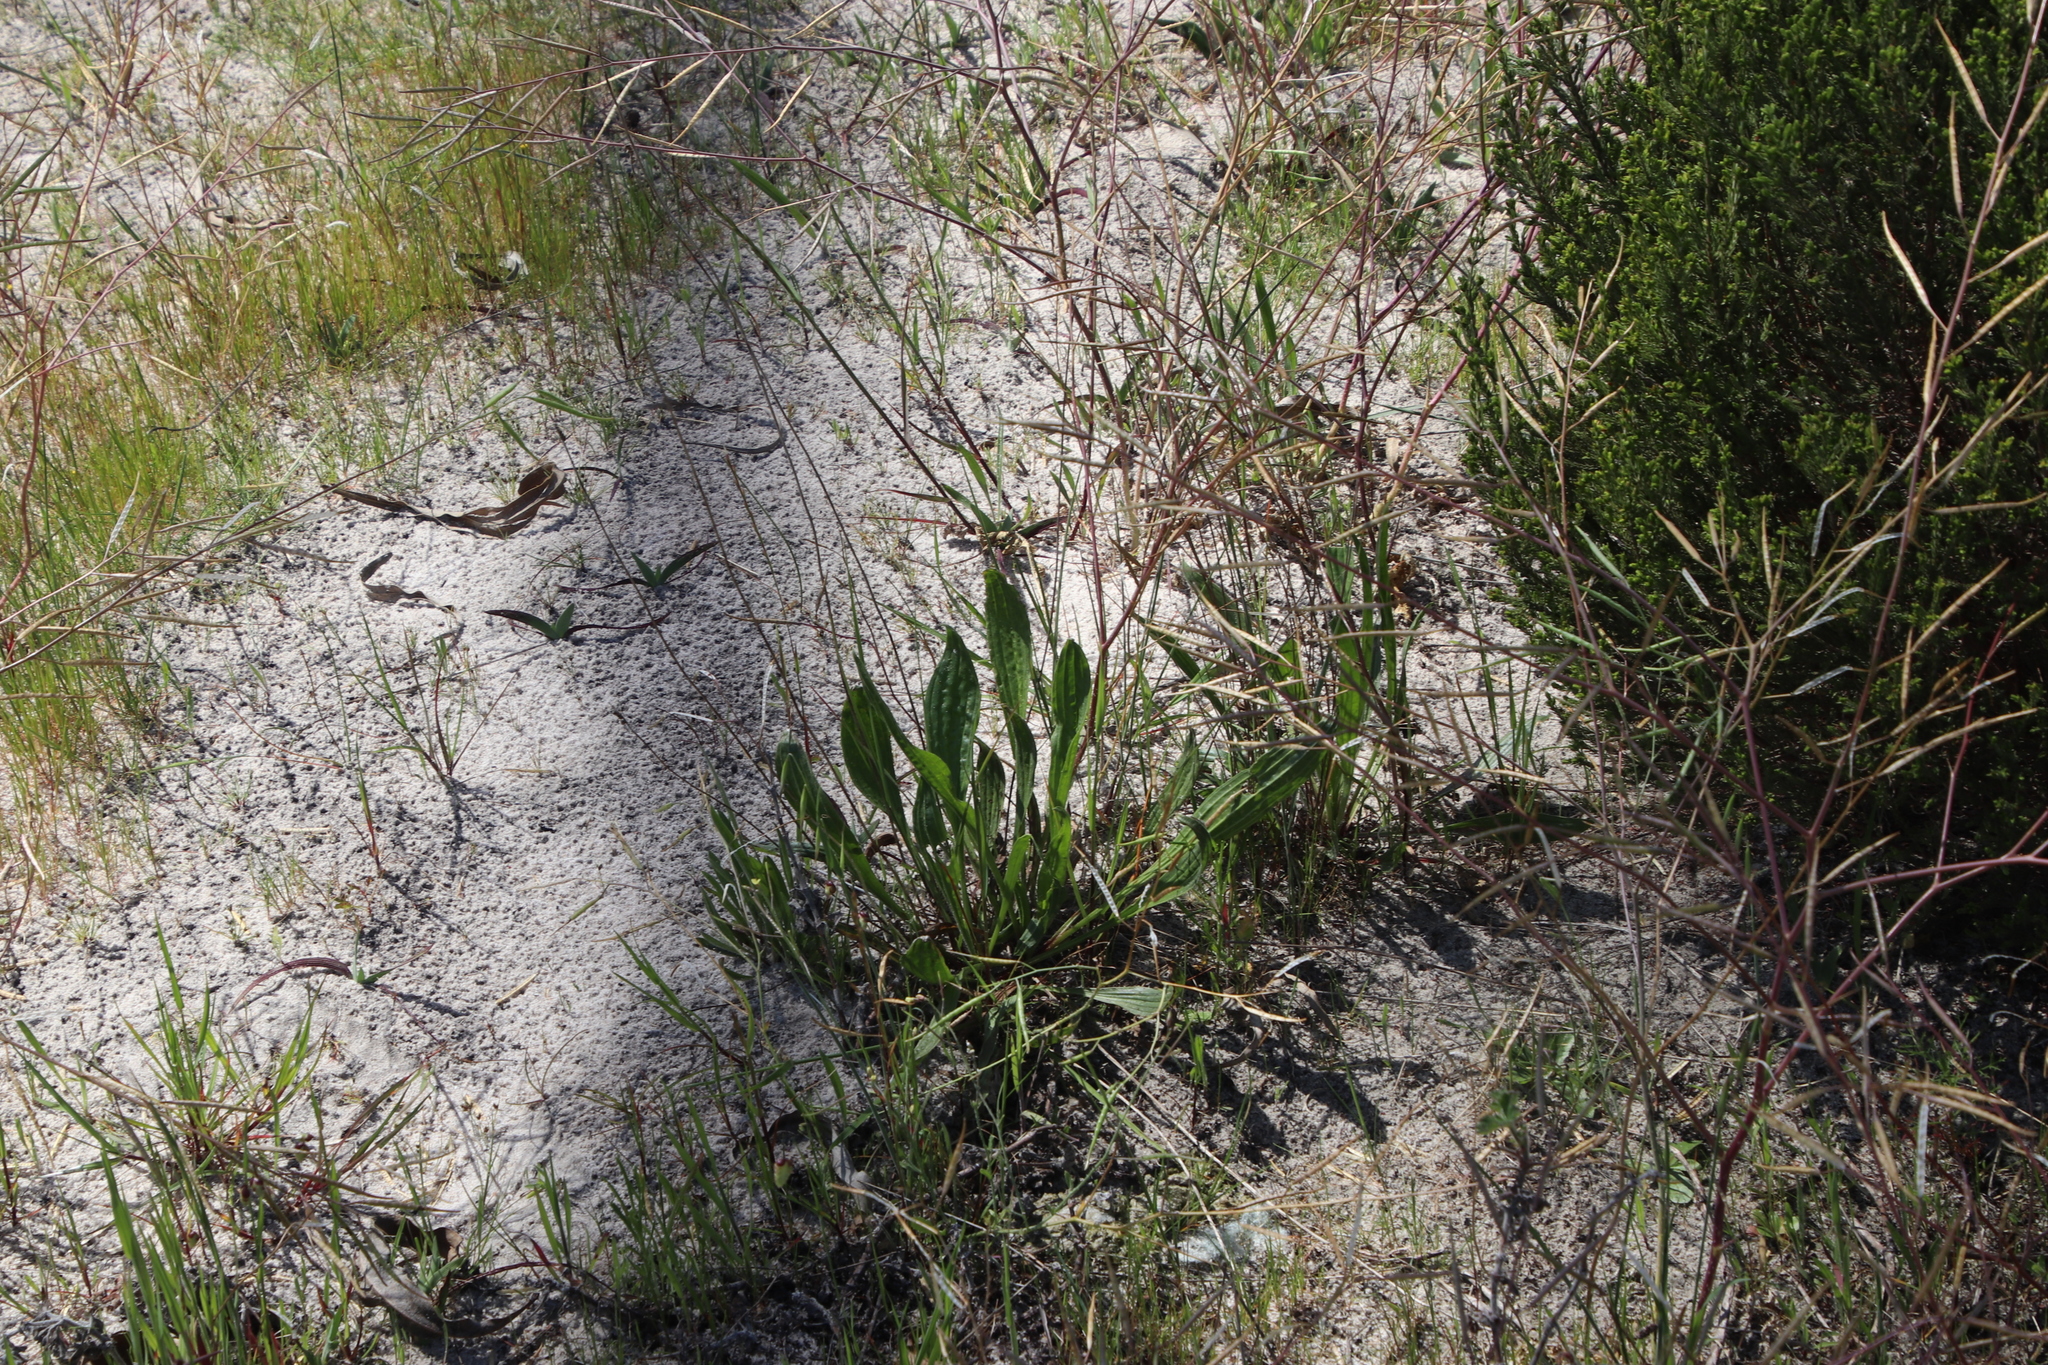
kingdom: Plantae
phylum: Tracheophyta
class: Magnoliopsida
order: Lamiales
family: Plantaginaceae
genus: Plantago
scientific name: Plantago lanceolata
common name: Ribwort plantain
